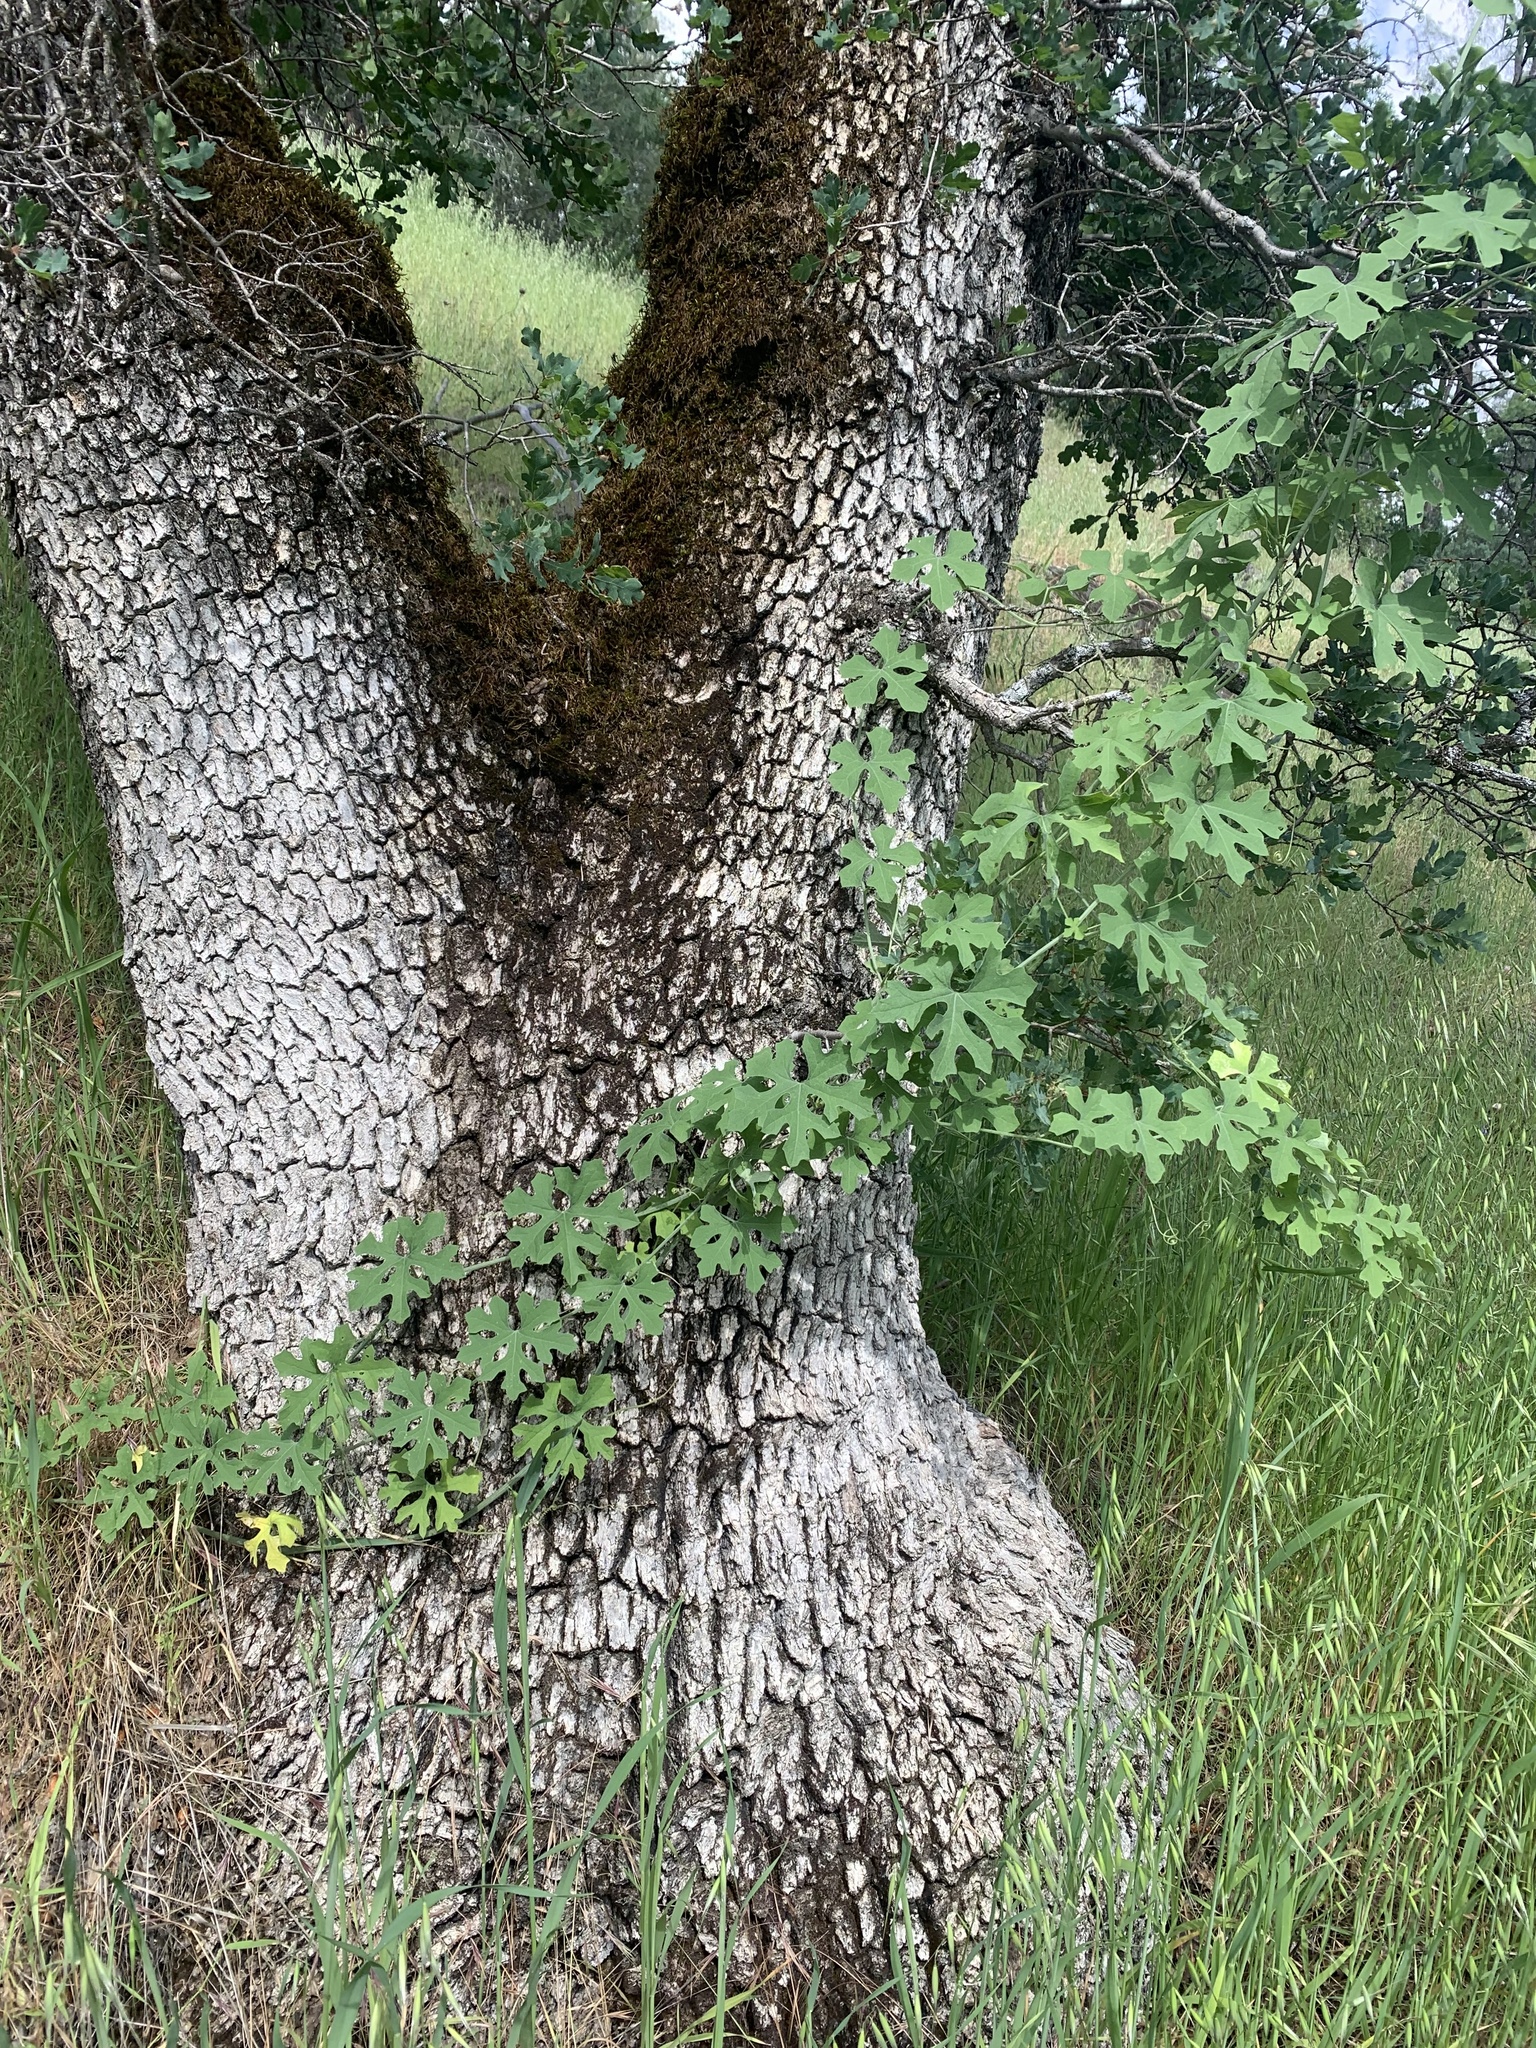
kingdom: Plantae
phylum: Tracheophyta
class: Magnoliopsida
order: Cucurbitales
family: Cucurbitaceae
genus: Marah
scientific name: Marah watsonii
